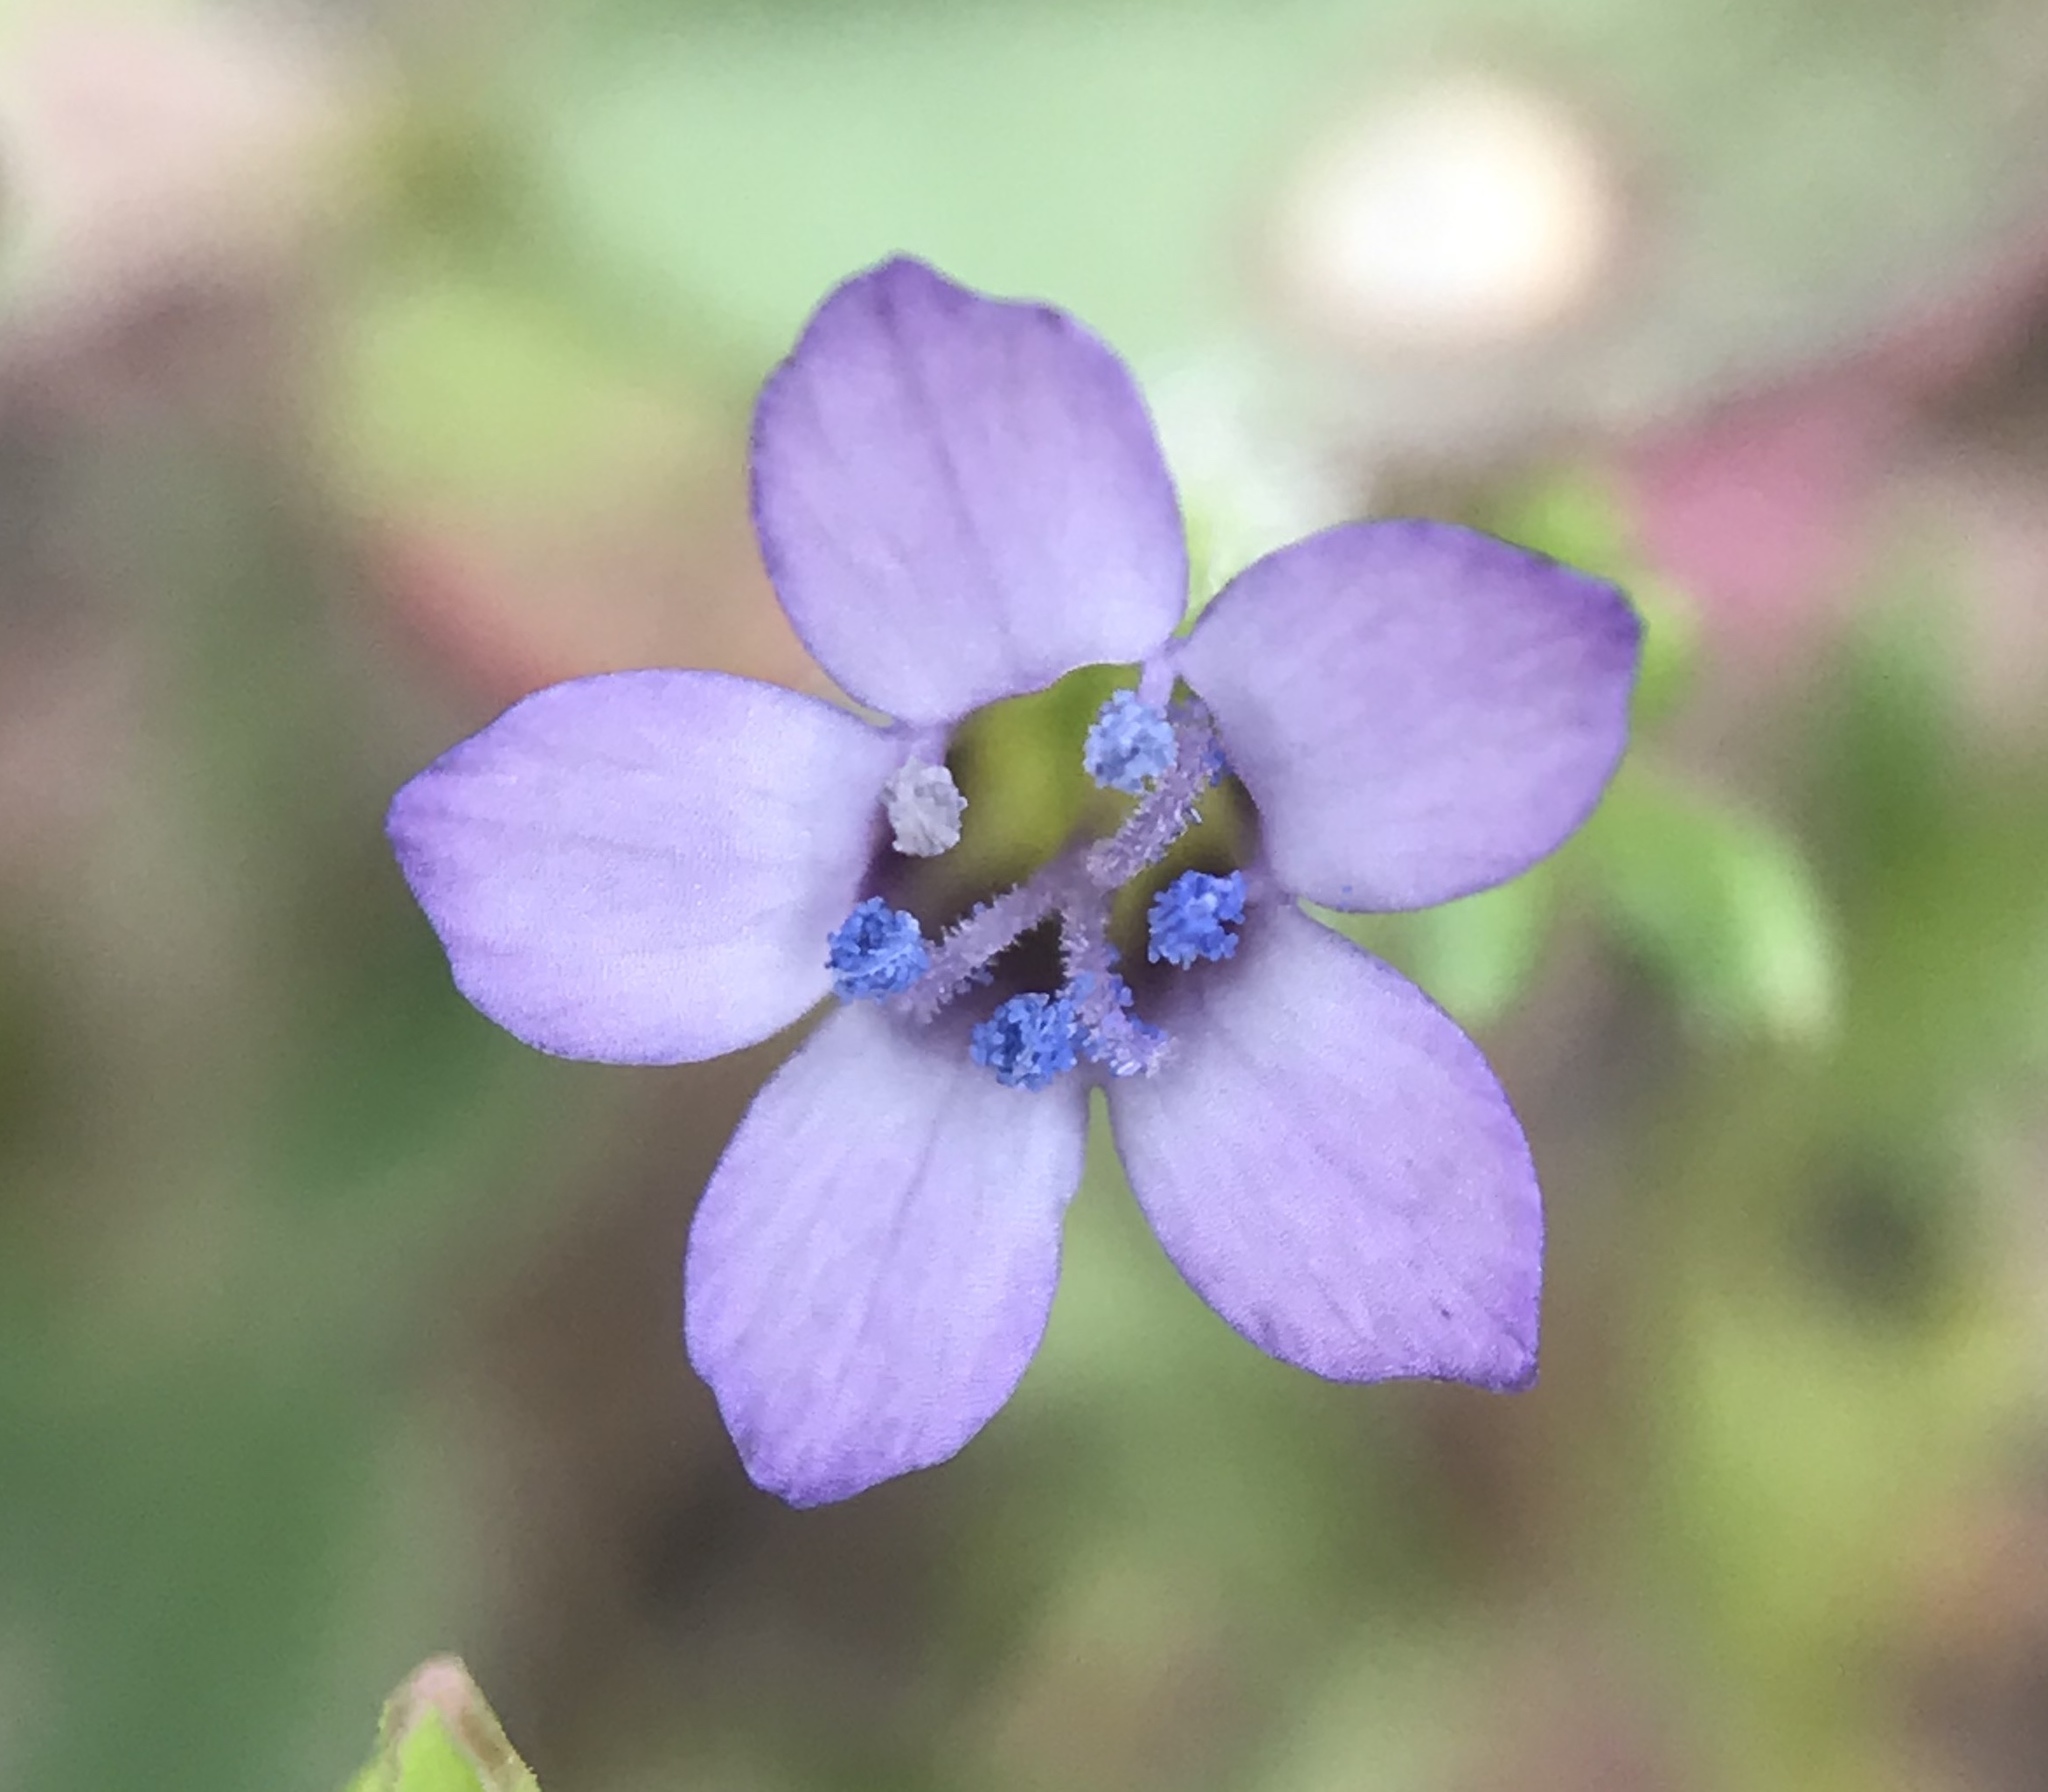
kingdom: Plantae
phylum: Tracheophyta
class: Magnoliopsida
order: Ericales
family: Polemoniaceae
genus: Gilia
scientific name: Gilia clivorum
